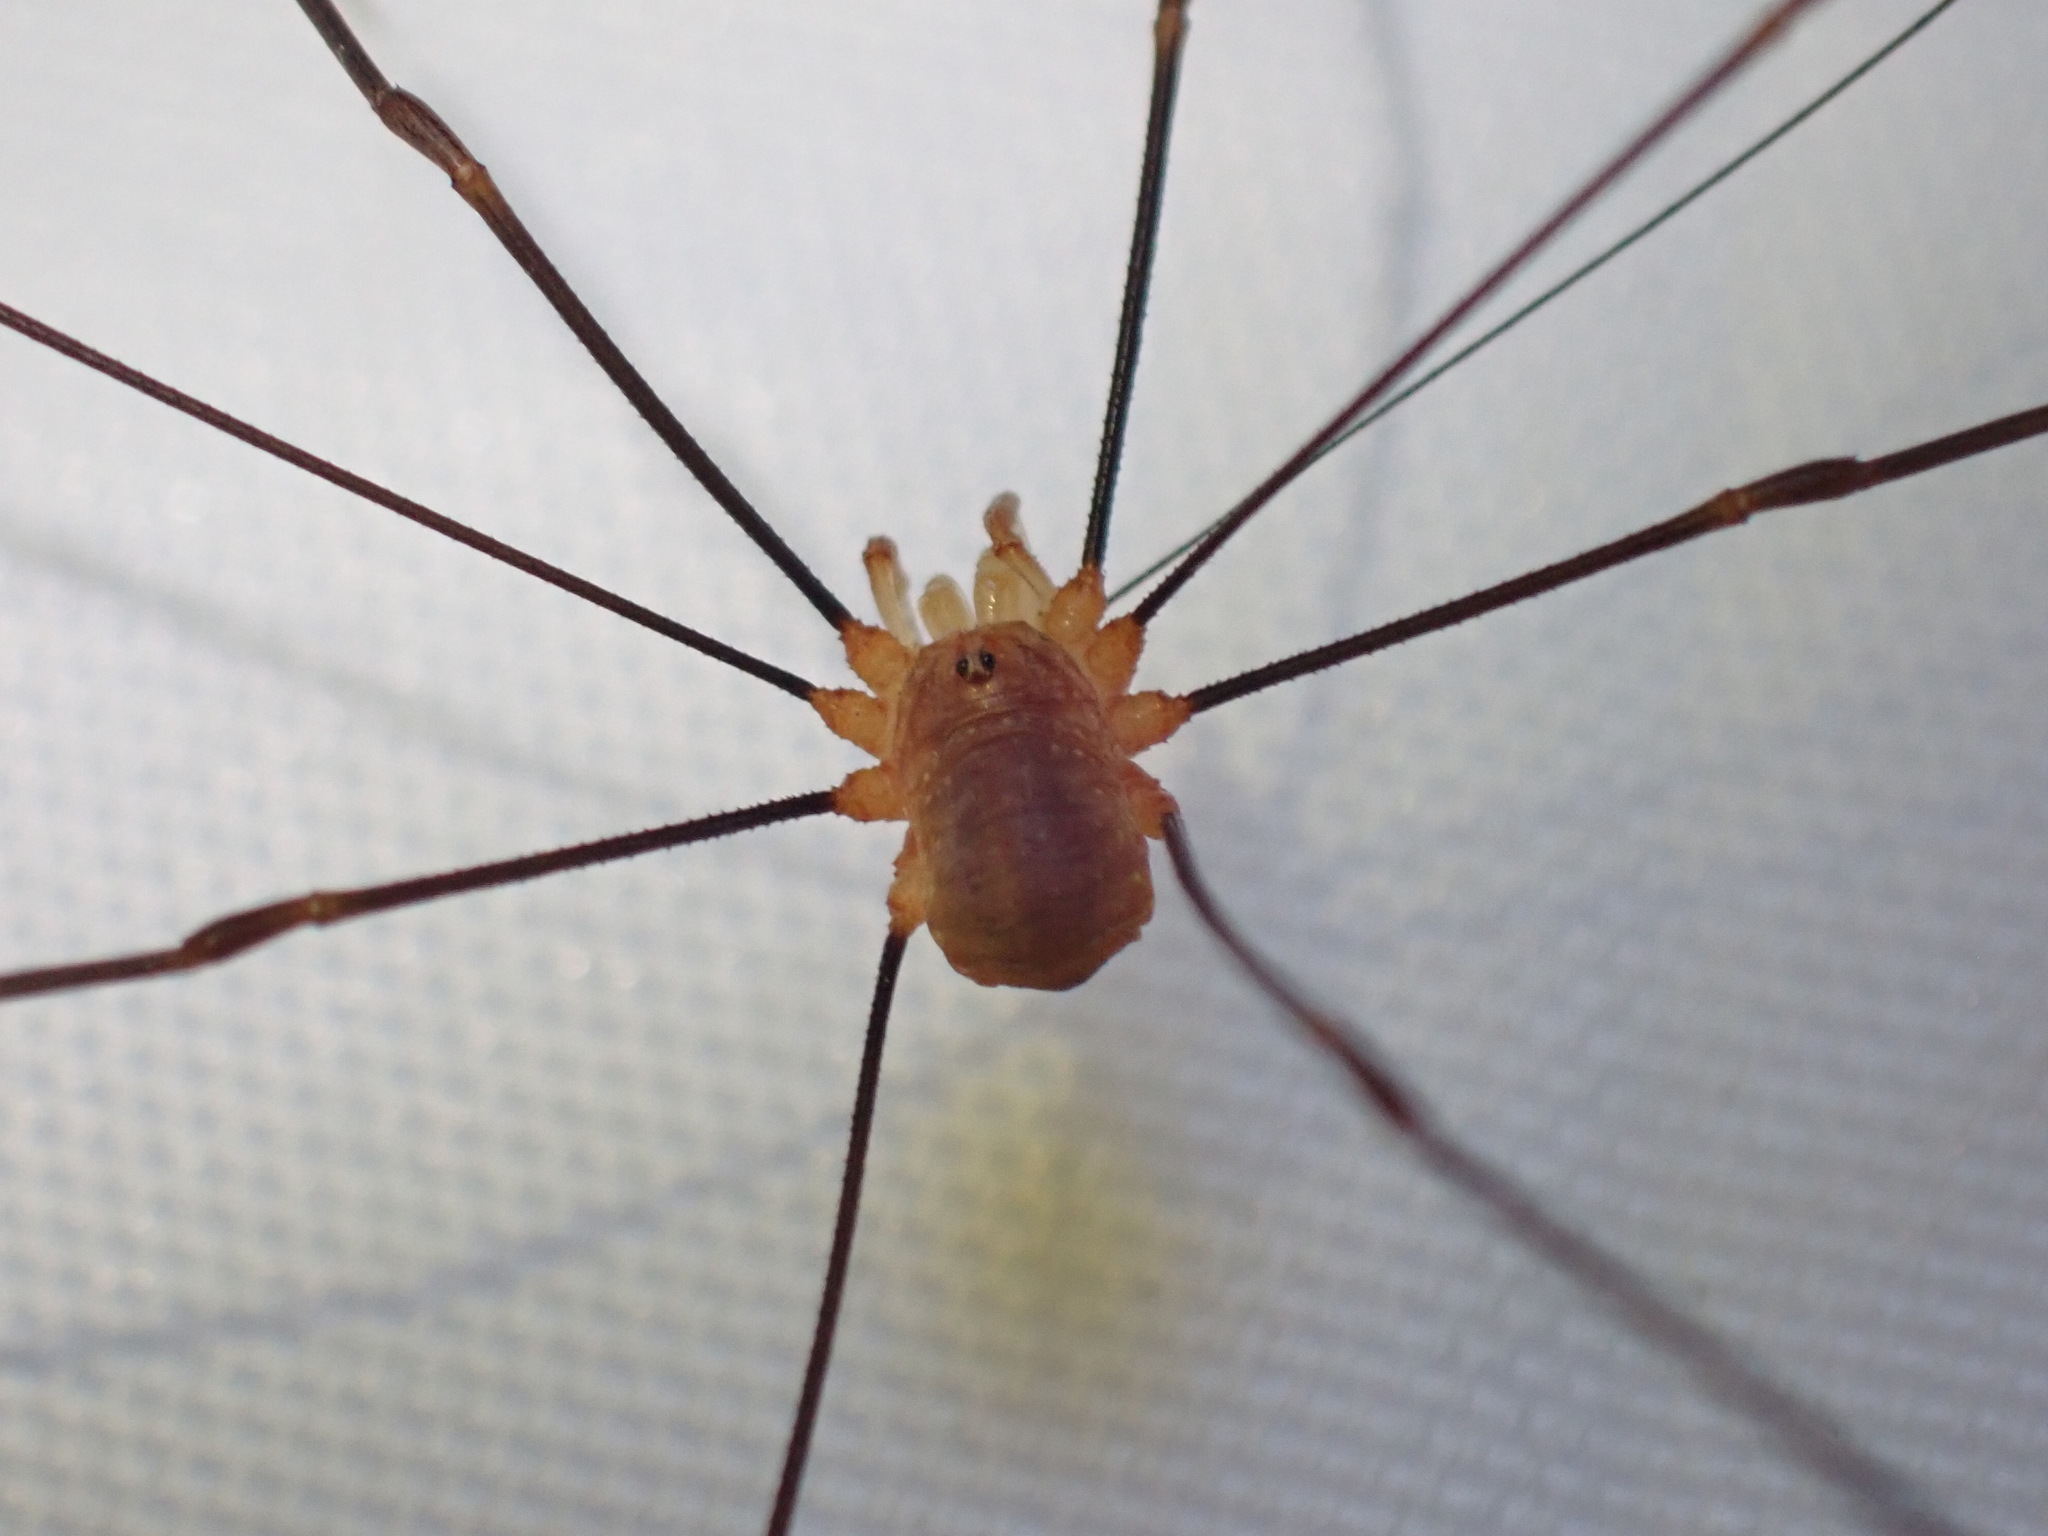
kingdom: Animalia
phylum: Arthropoda
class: Arachnida
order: Opiliones
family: Phalangiidae
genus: Opilio
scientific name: Opilio canestrinii
